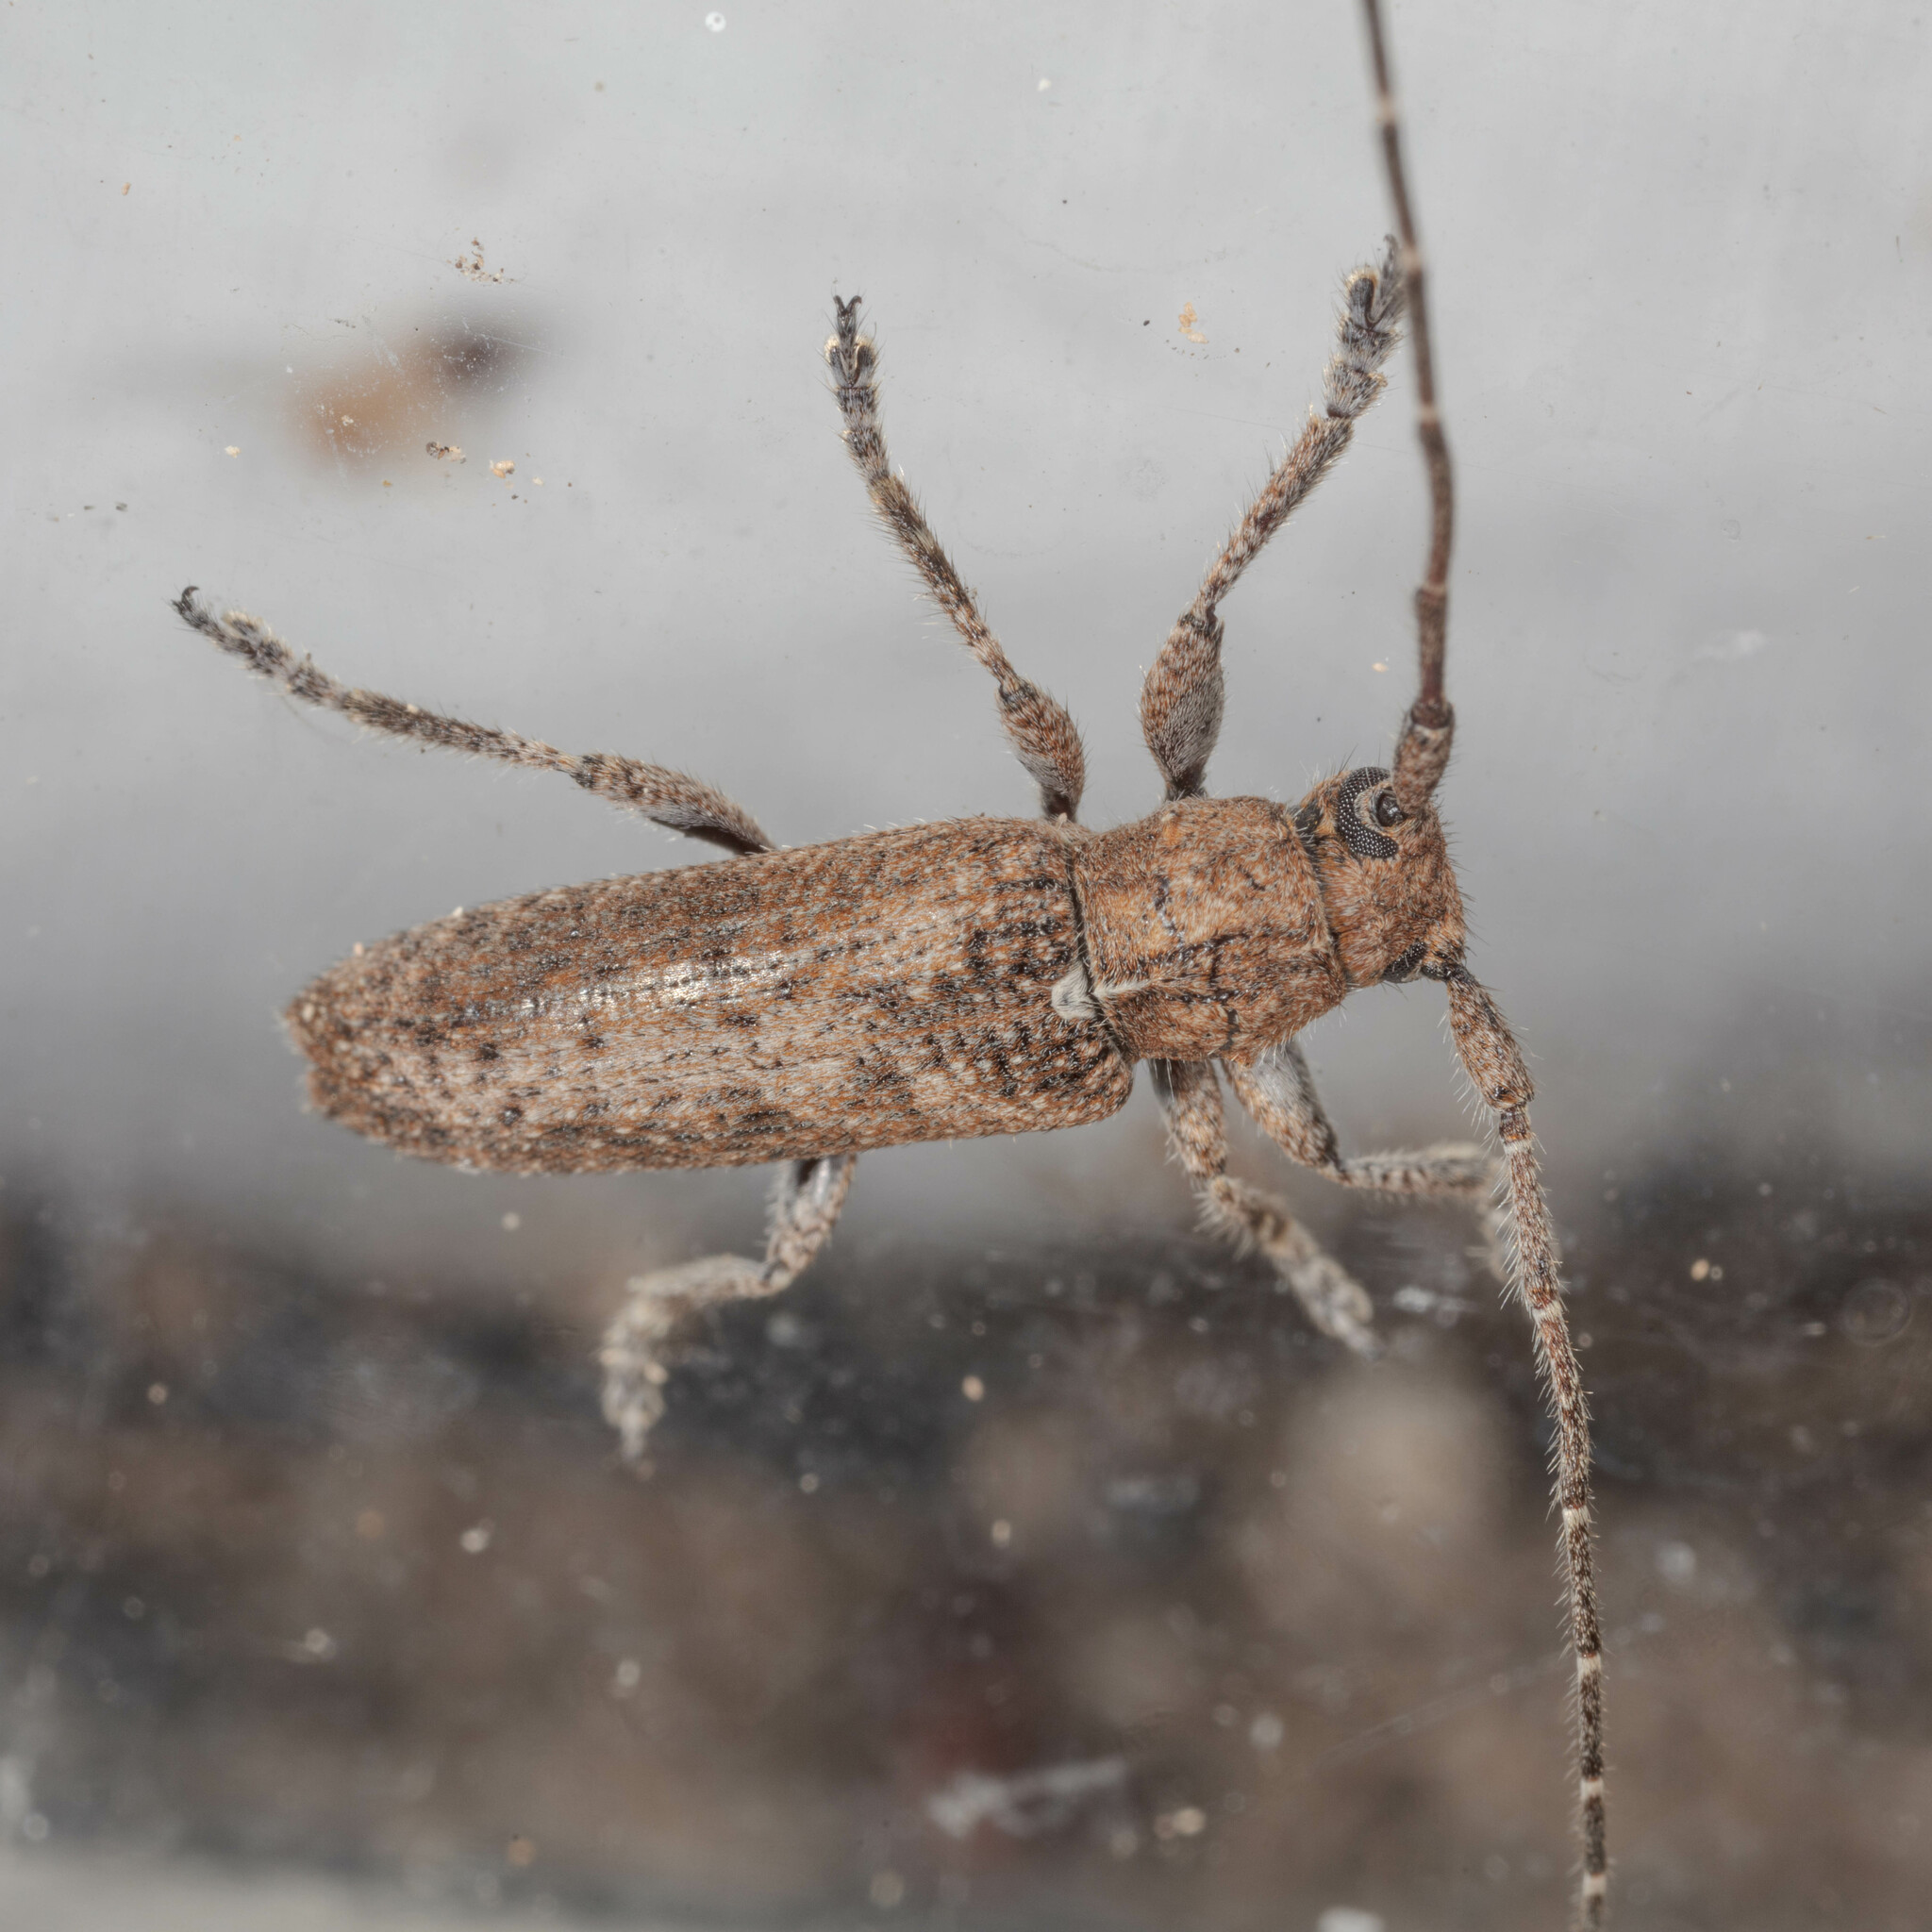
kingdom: Animalia
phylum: Arthropoda
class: Insecta
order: Coleoptera
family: Cerambycidae
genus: Ataxia
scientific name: Ataxia crypta
